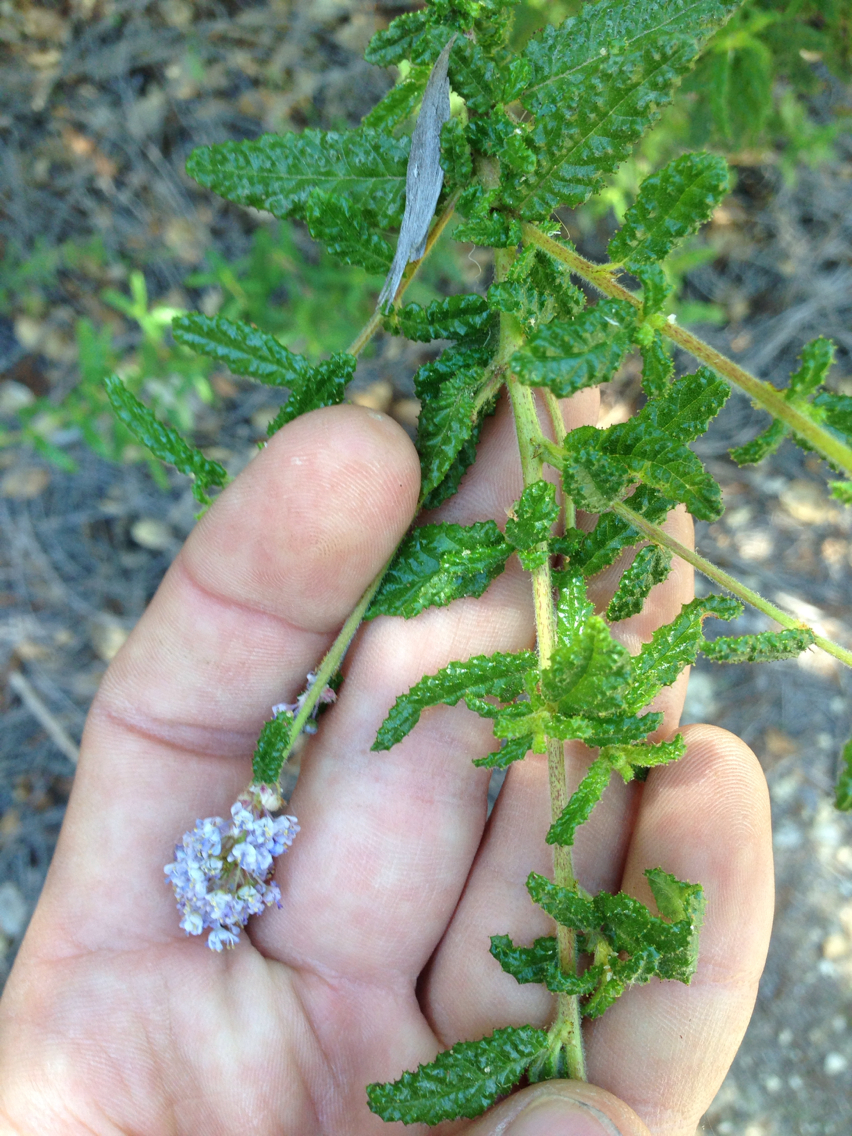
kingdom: Plantae
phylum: Tracheophyta
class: Magnoliopsida
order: Rosales
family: Rhamnaceae
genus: Ceanothus
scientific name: Ceanothus papillosus
